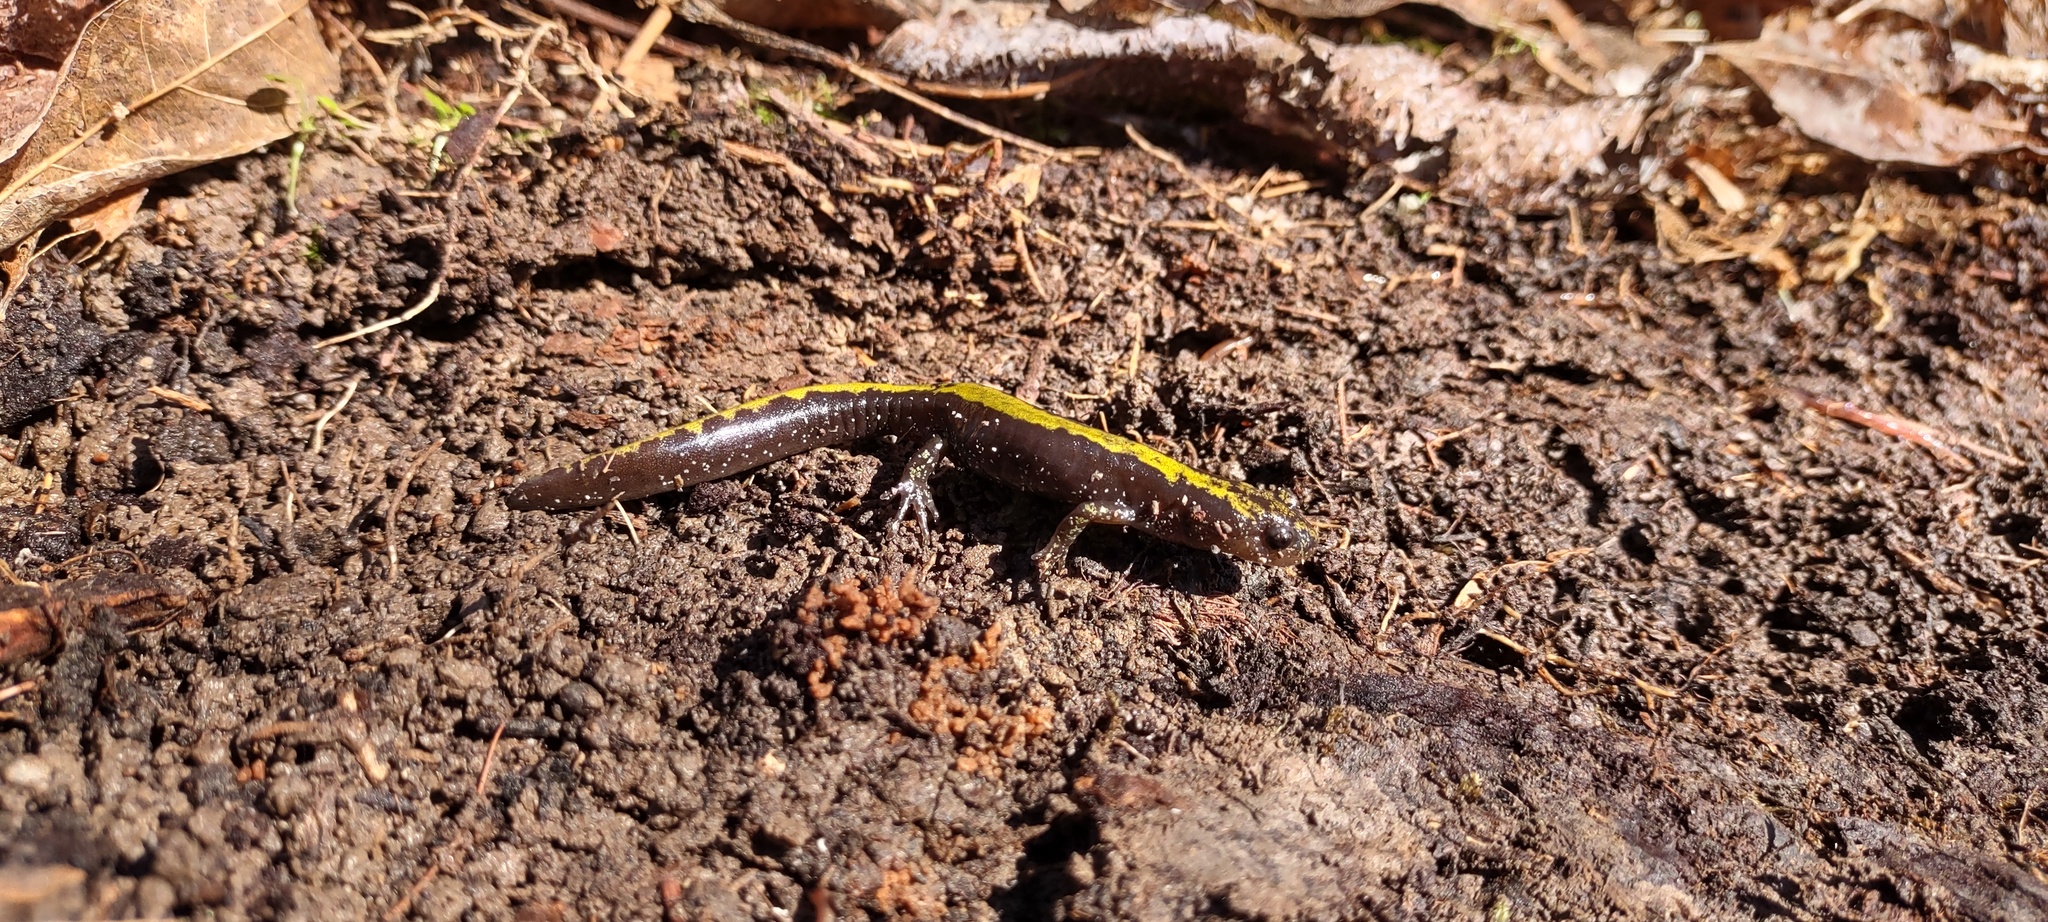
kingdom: Animalia
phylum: Chordata
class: Amphibia
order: Caudata
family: Ambystomatidae
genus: Ambystoma
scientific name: Ambystoma macrodactylum
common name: Long-toed salamander
